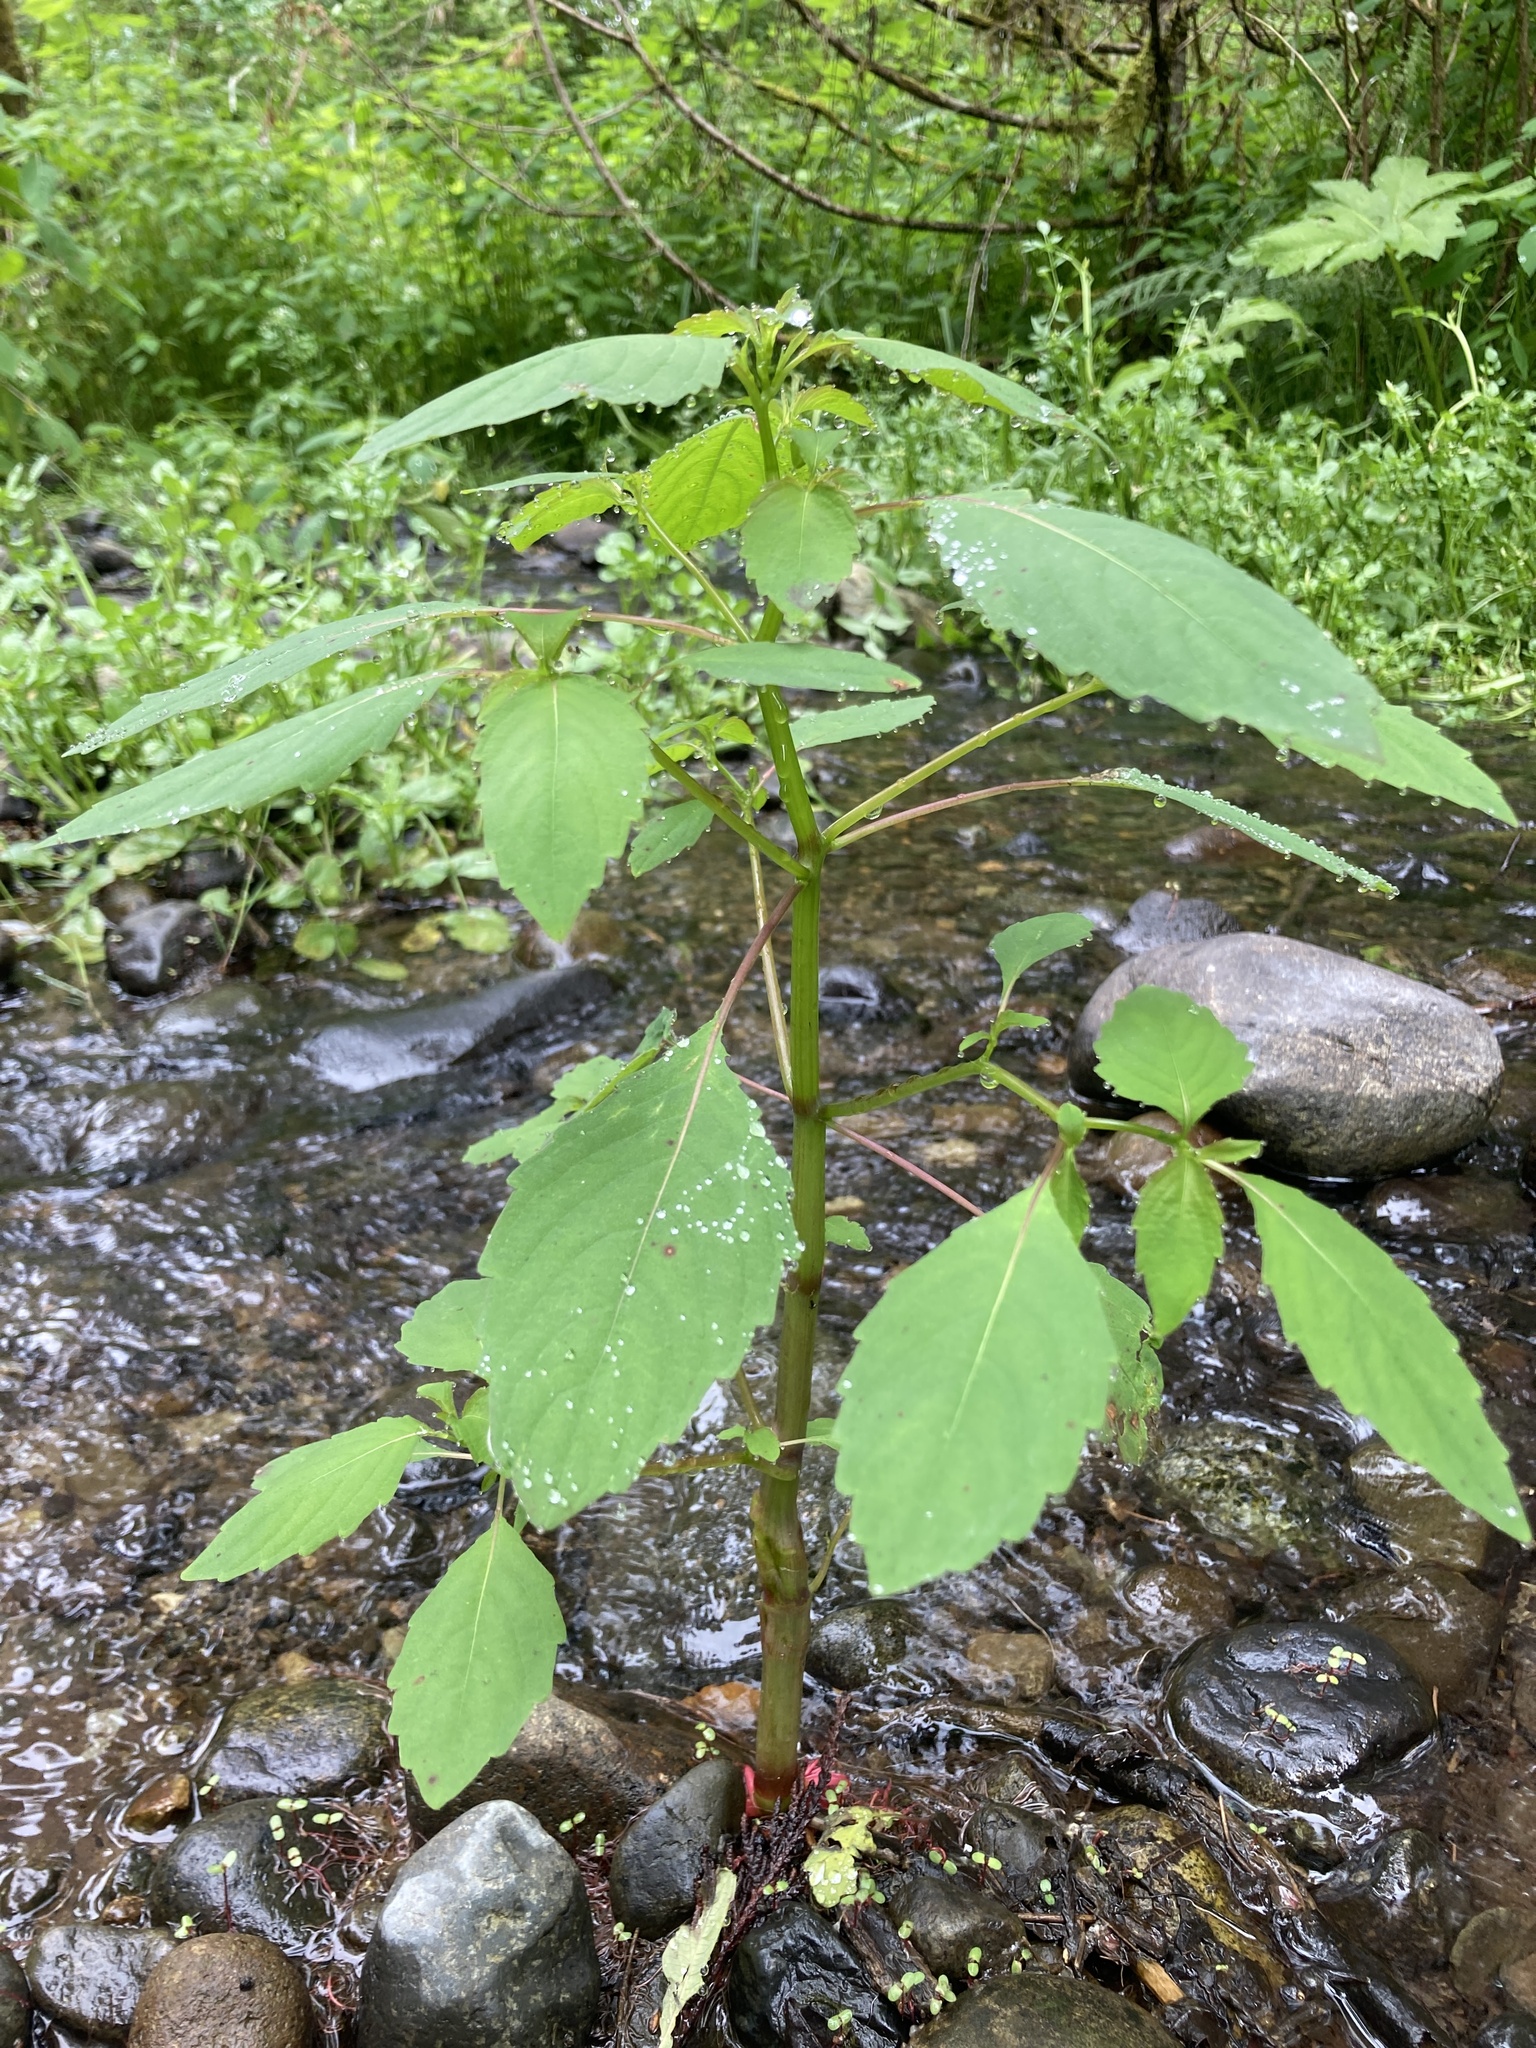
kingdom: Plantae
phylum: Tracheophyta
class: Magnoliopsida
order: Ericales
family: Balsaminaceae
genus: Impatiens
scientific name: Impatiens capensis
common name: Orange balsam
